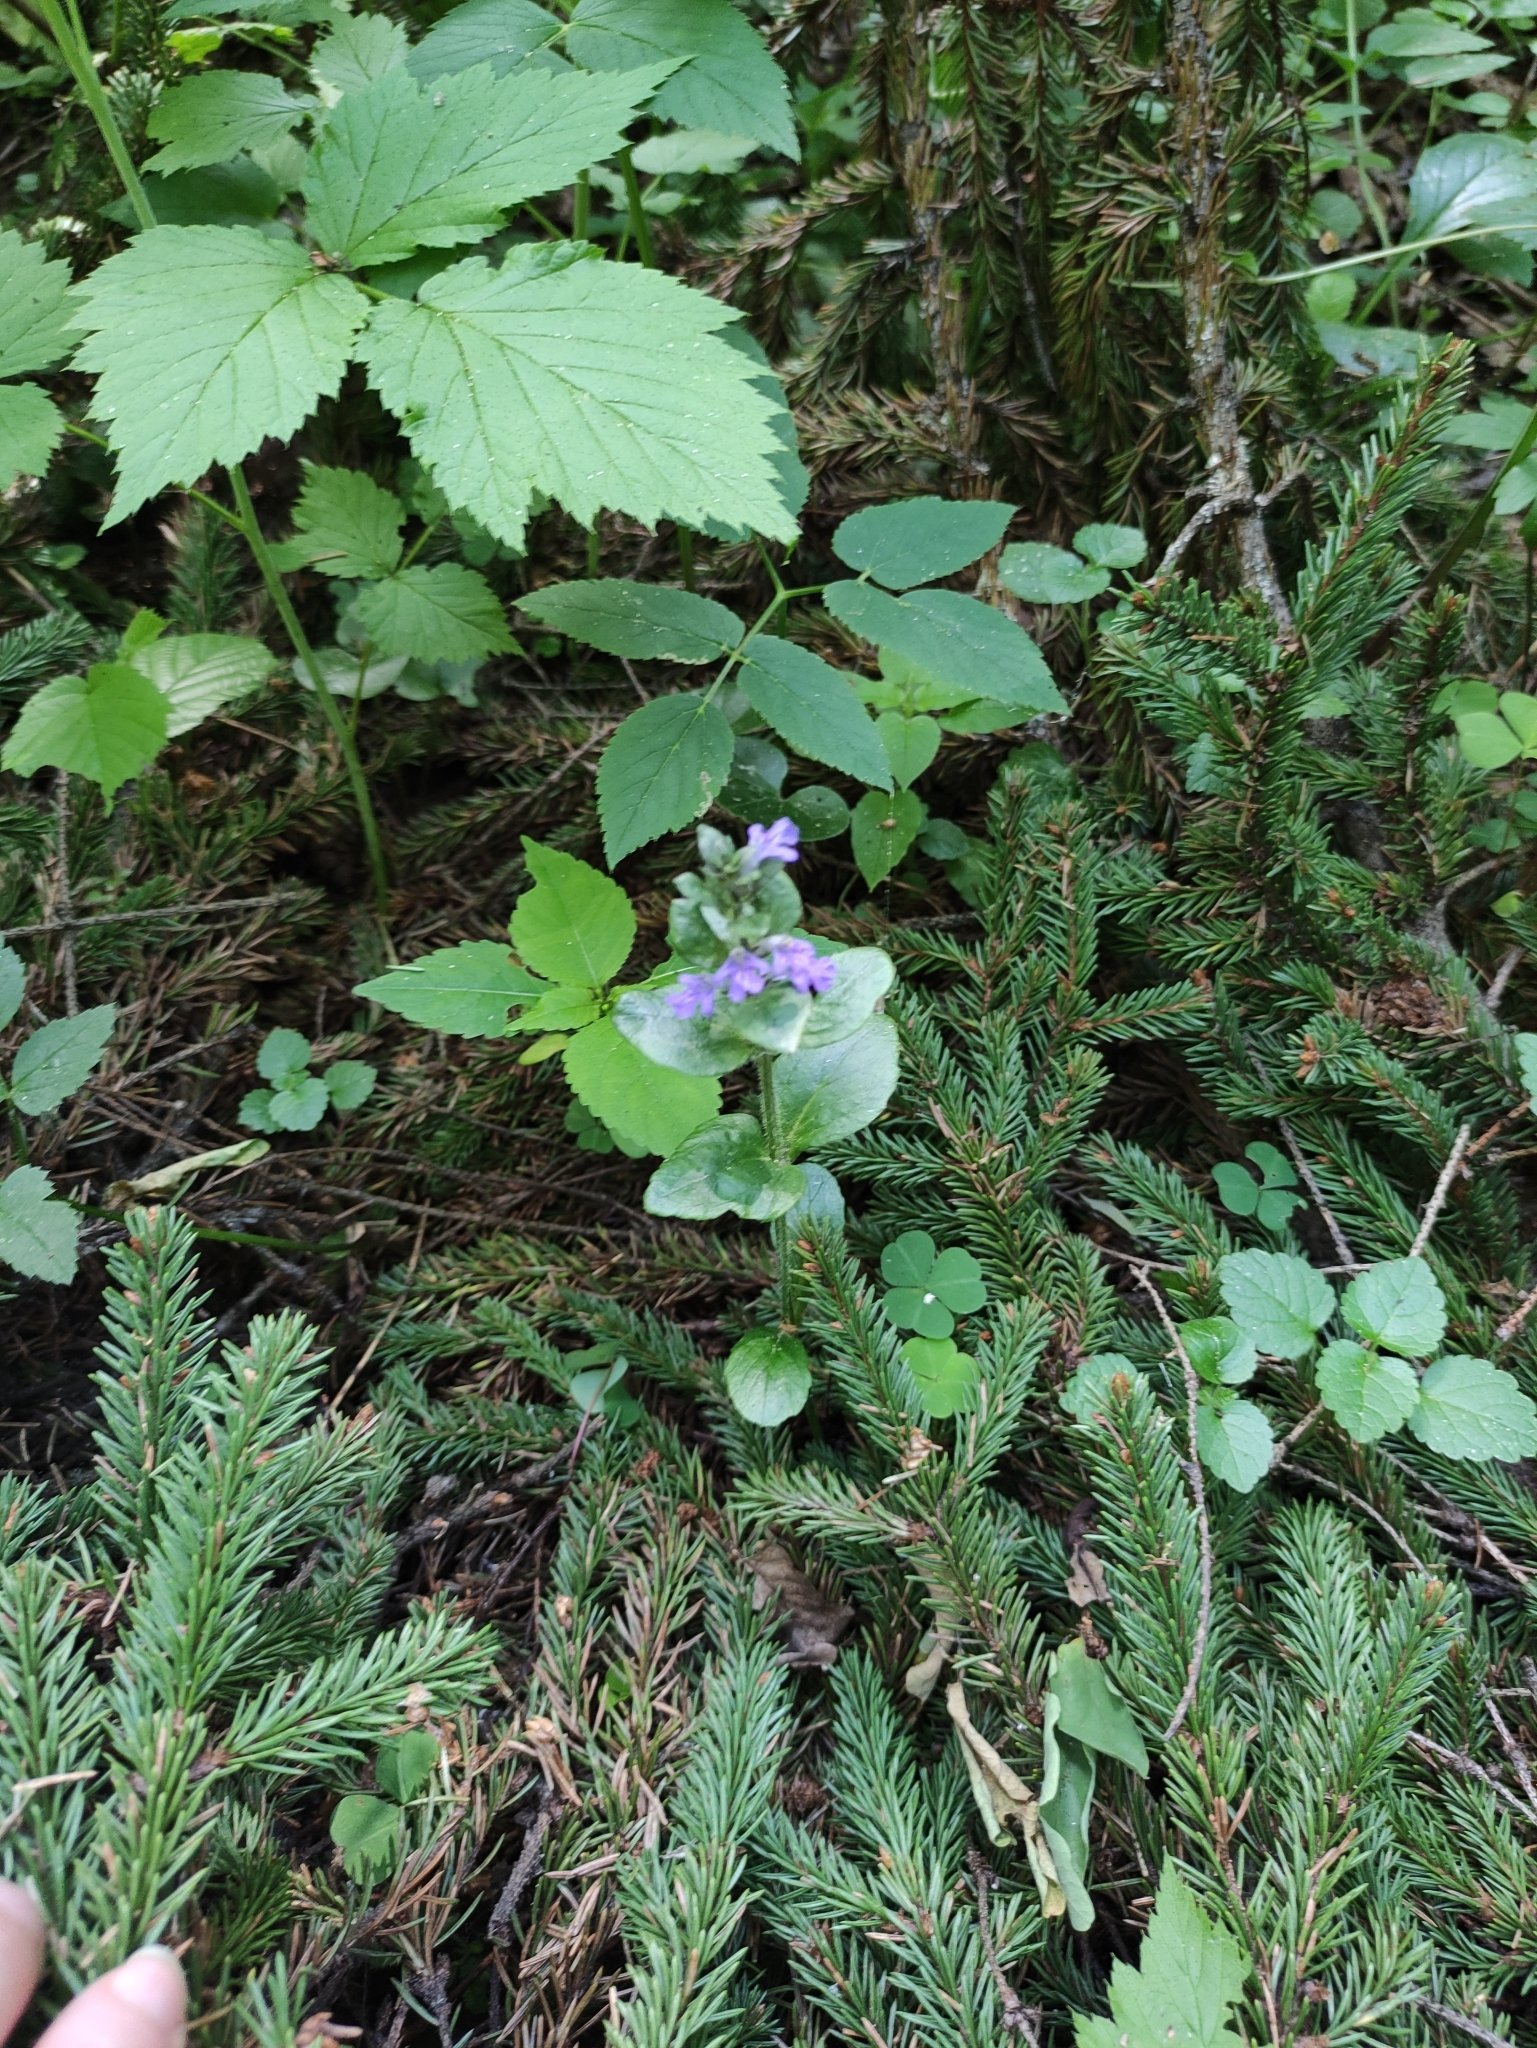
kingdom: Plantae
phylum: Tracheophyta
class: Magnoliopsida
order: Lamiales
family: Lamiaceae
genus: Ajuga
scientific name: Ajuga reptans
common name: Bugle
